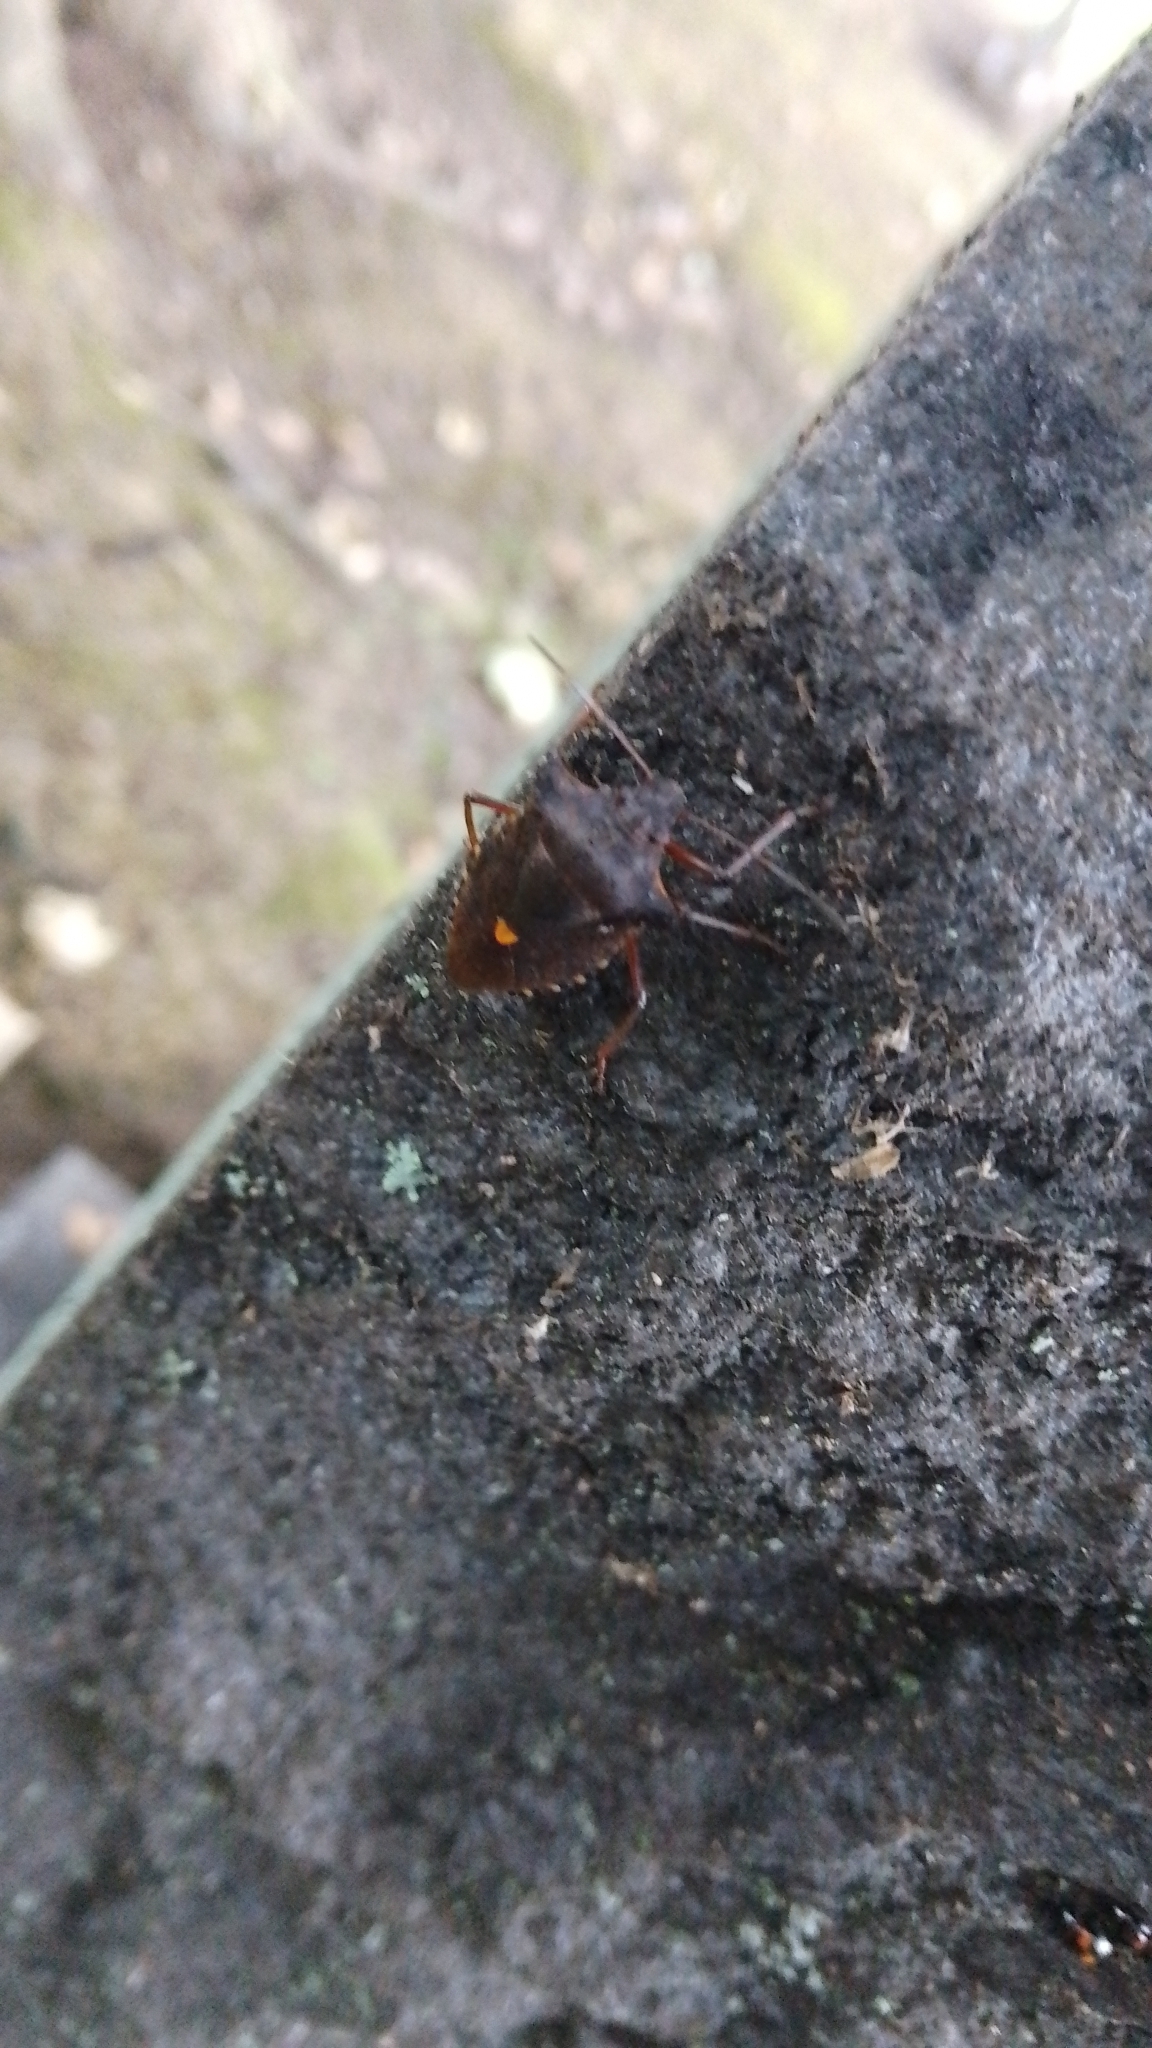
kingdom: Animalia
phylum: Arthropoda
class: Insecta
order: Hemiptera
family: Pentatomidae
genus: Pentatoma
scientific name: Pentatoma rufipes
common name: Forest bug
